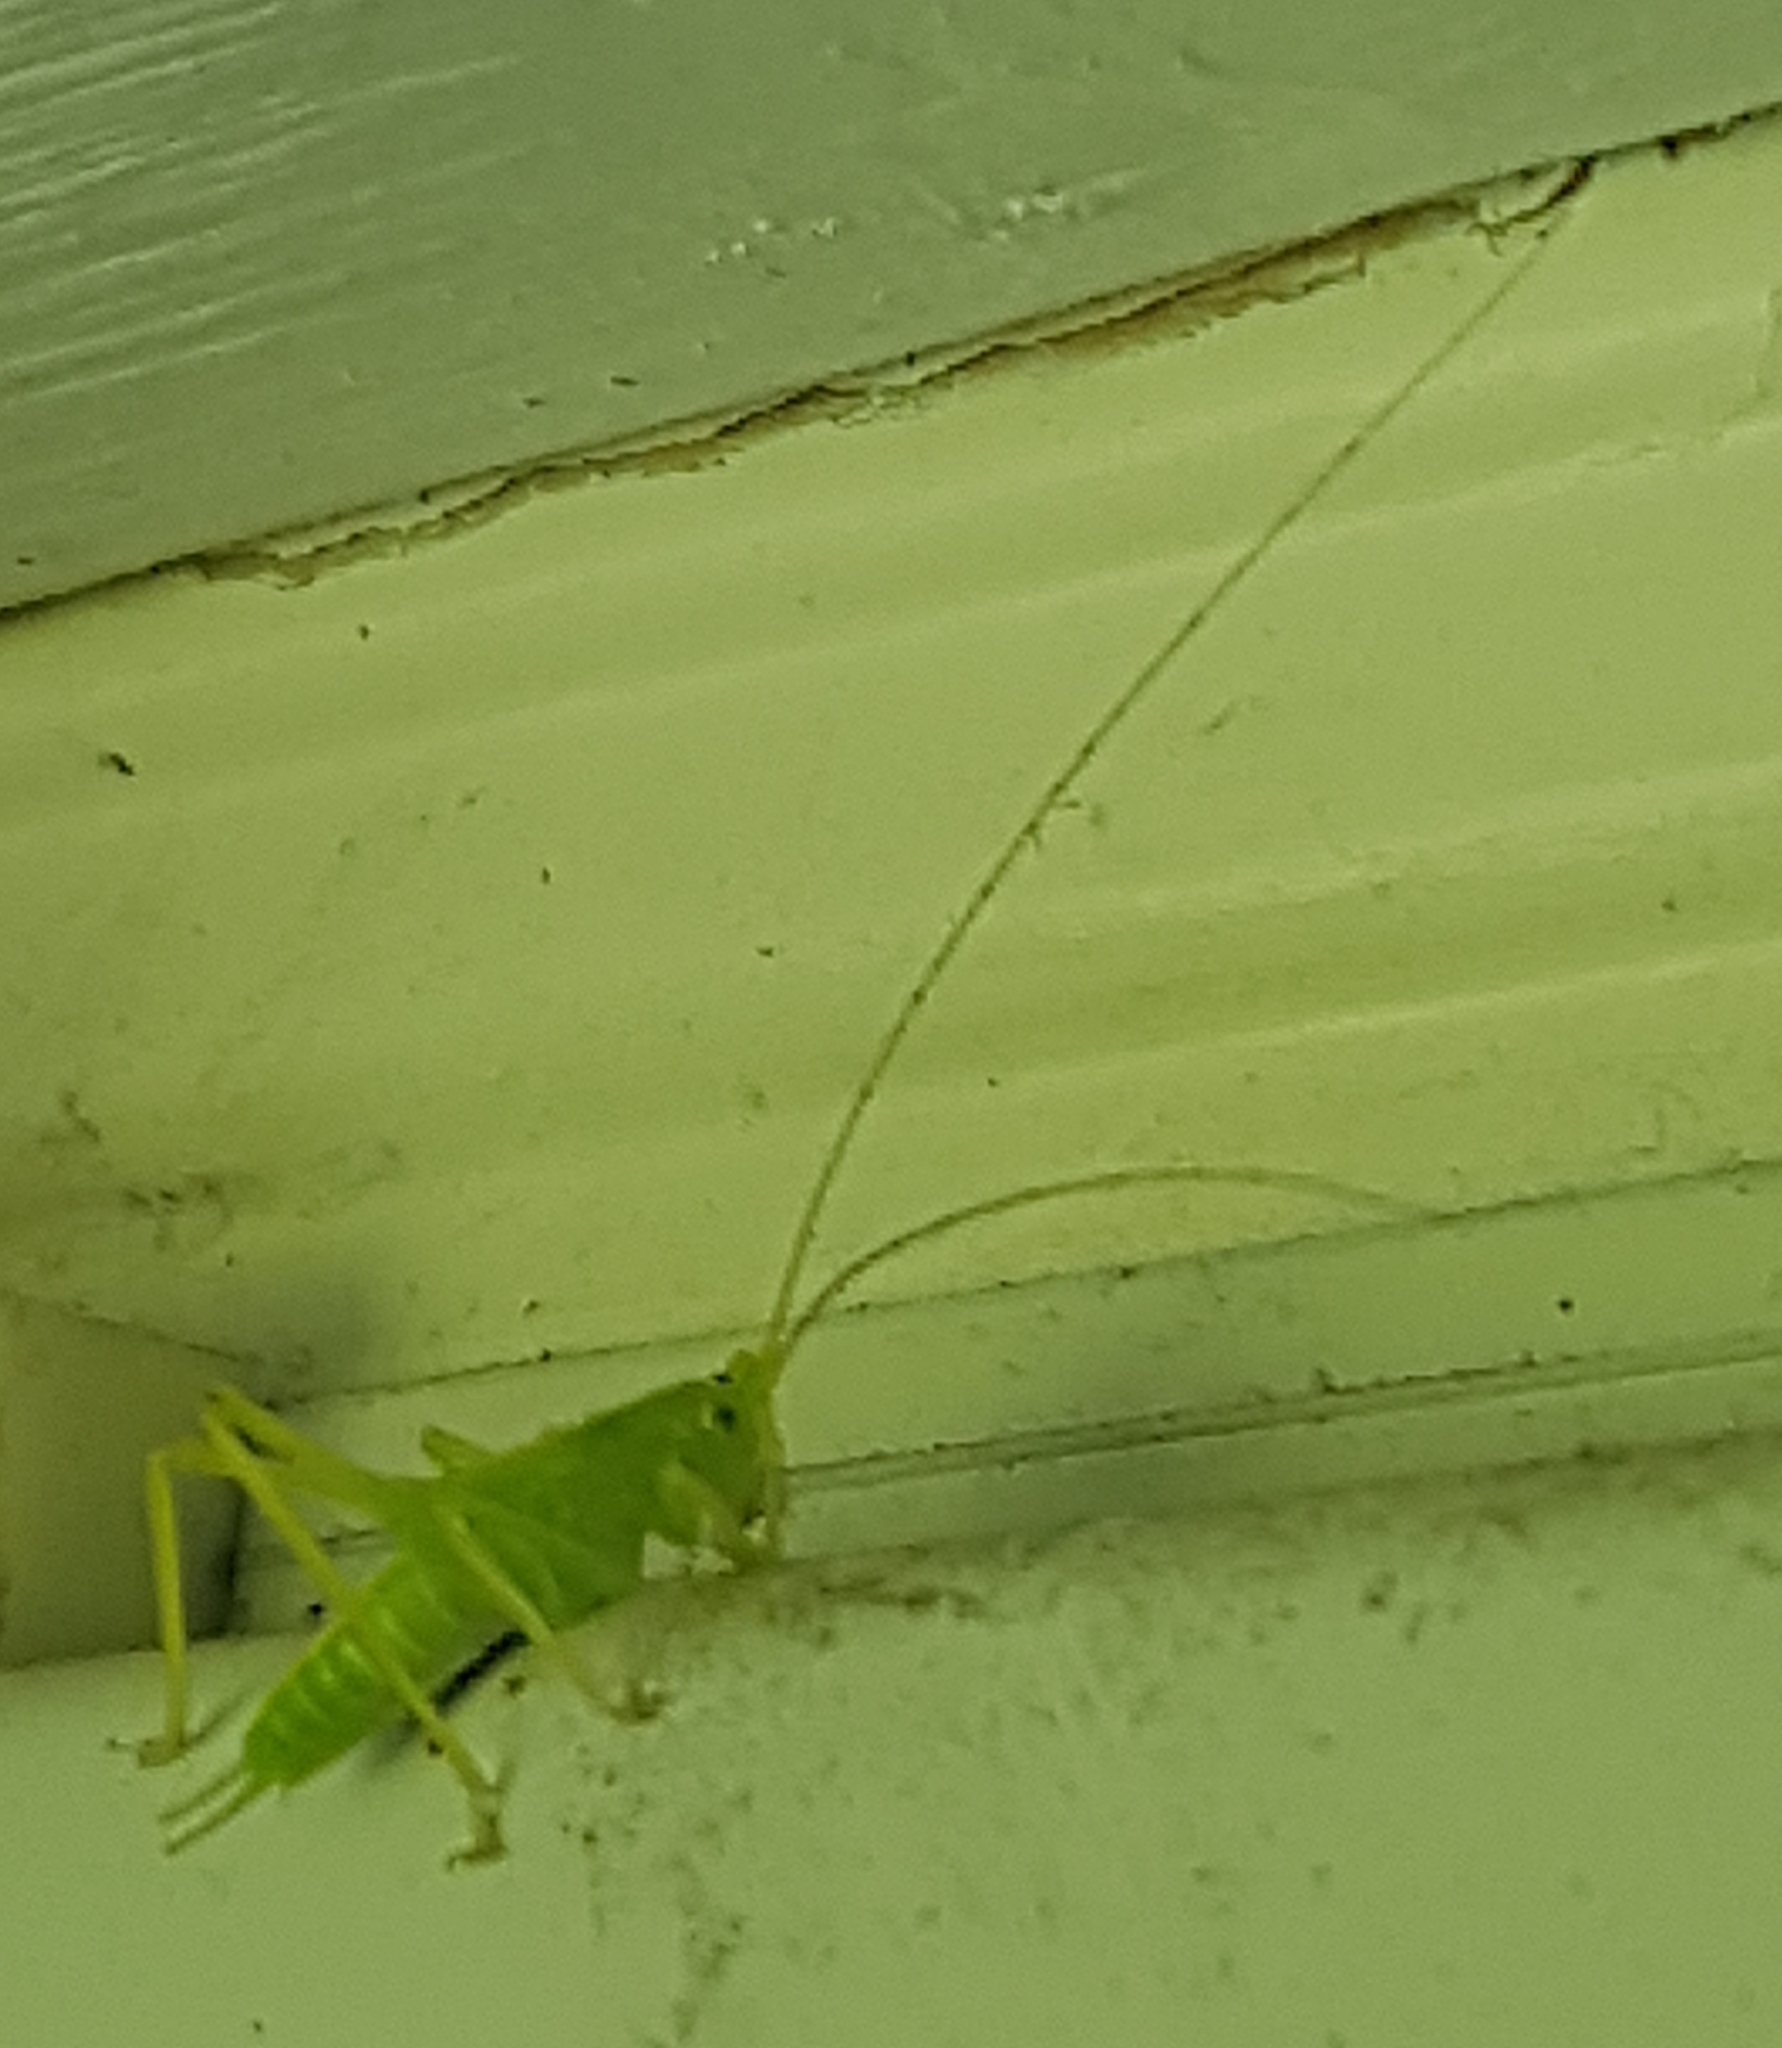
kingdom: Animalia
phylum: Arthropoda
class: Insecta
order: Orthoptera
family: Tettigoniidae
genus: Meconema
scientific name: Meconema thalassinum
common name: Oak bush-cricket
